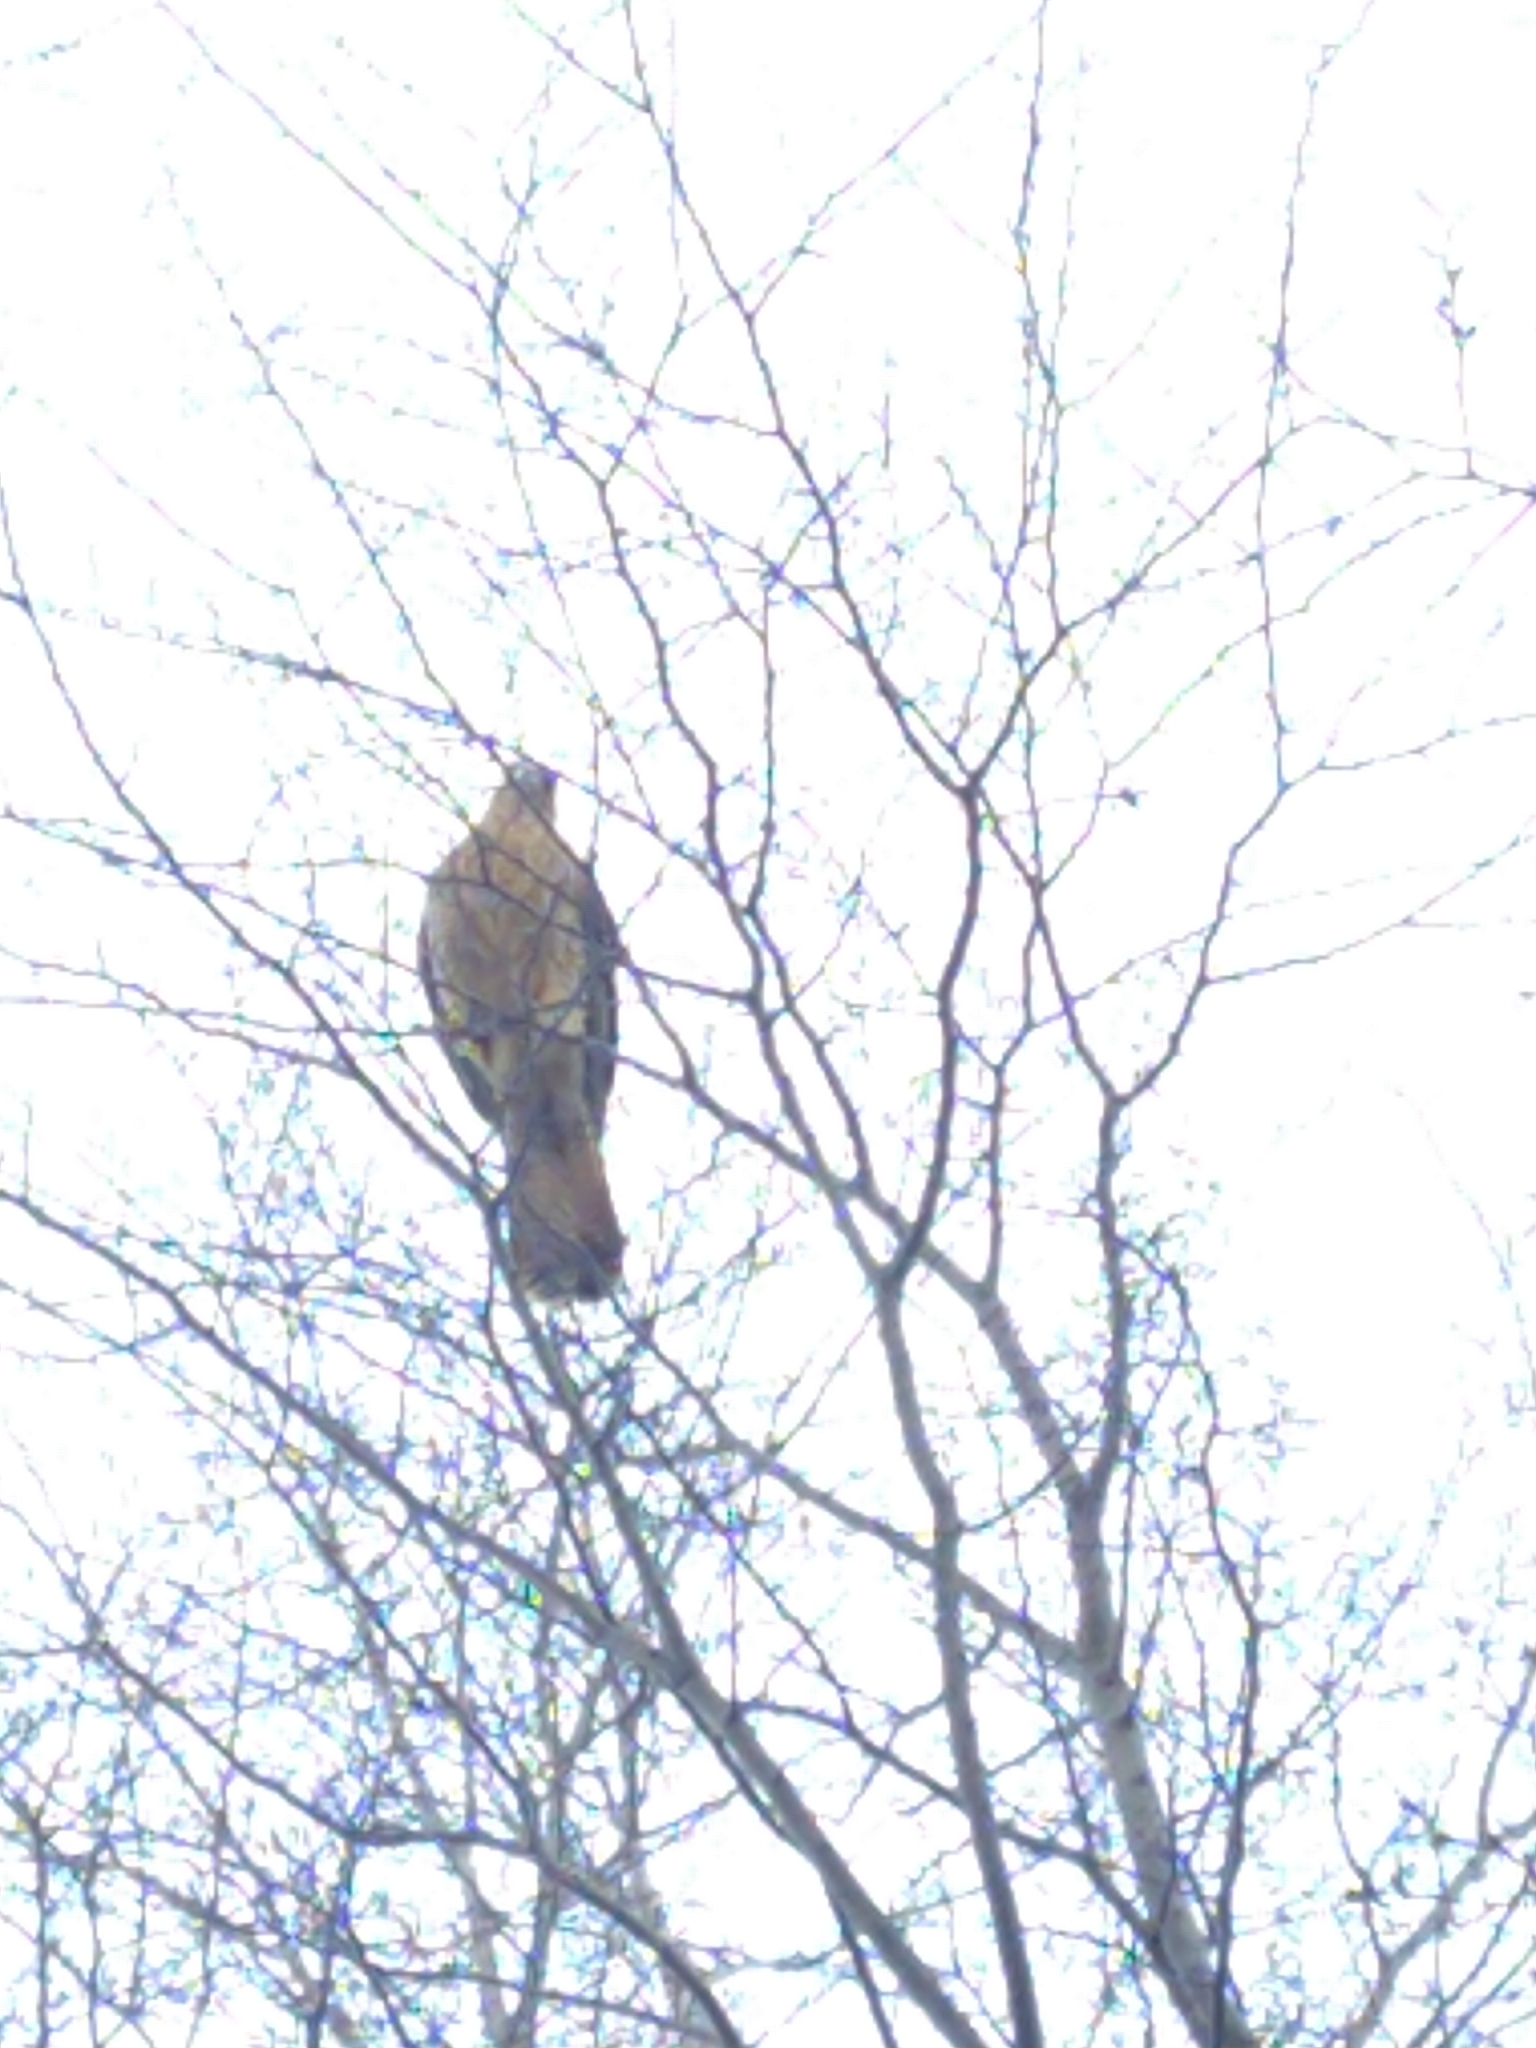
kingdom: Animalia
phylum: Chordata
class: Aves
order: Falconiformes
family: Falconidae
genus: Daptrius
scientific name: Daptrius
